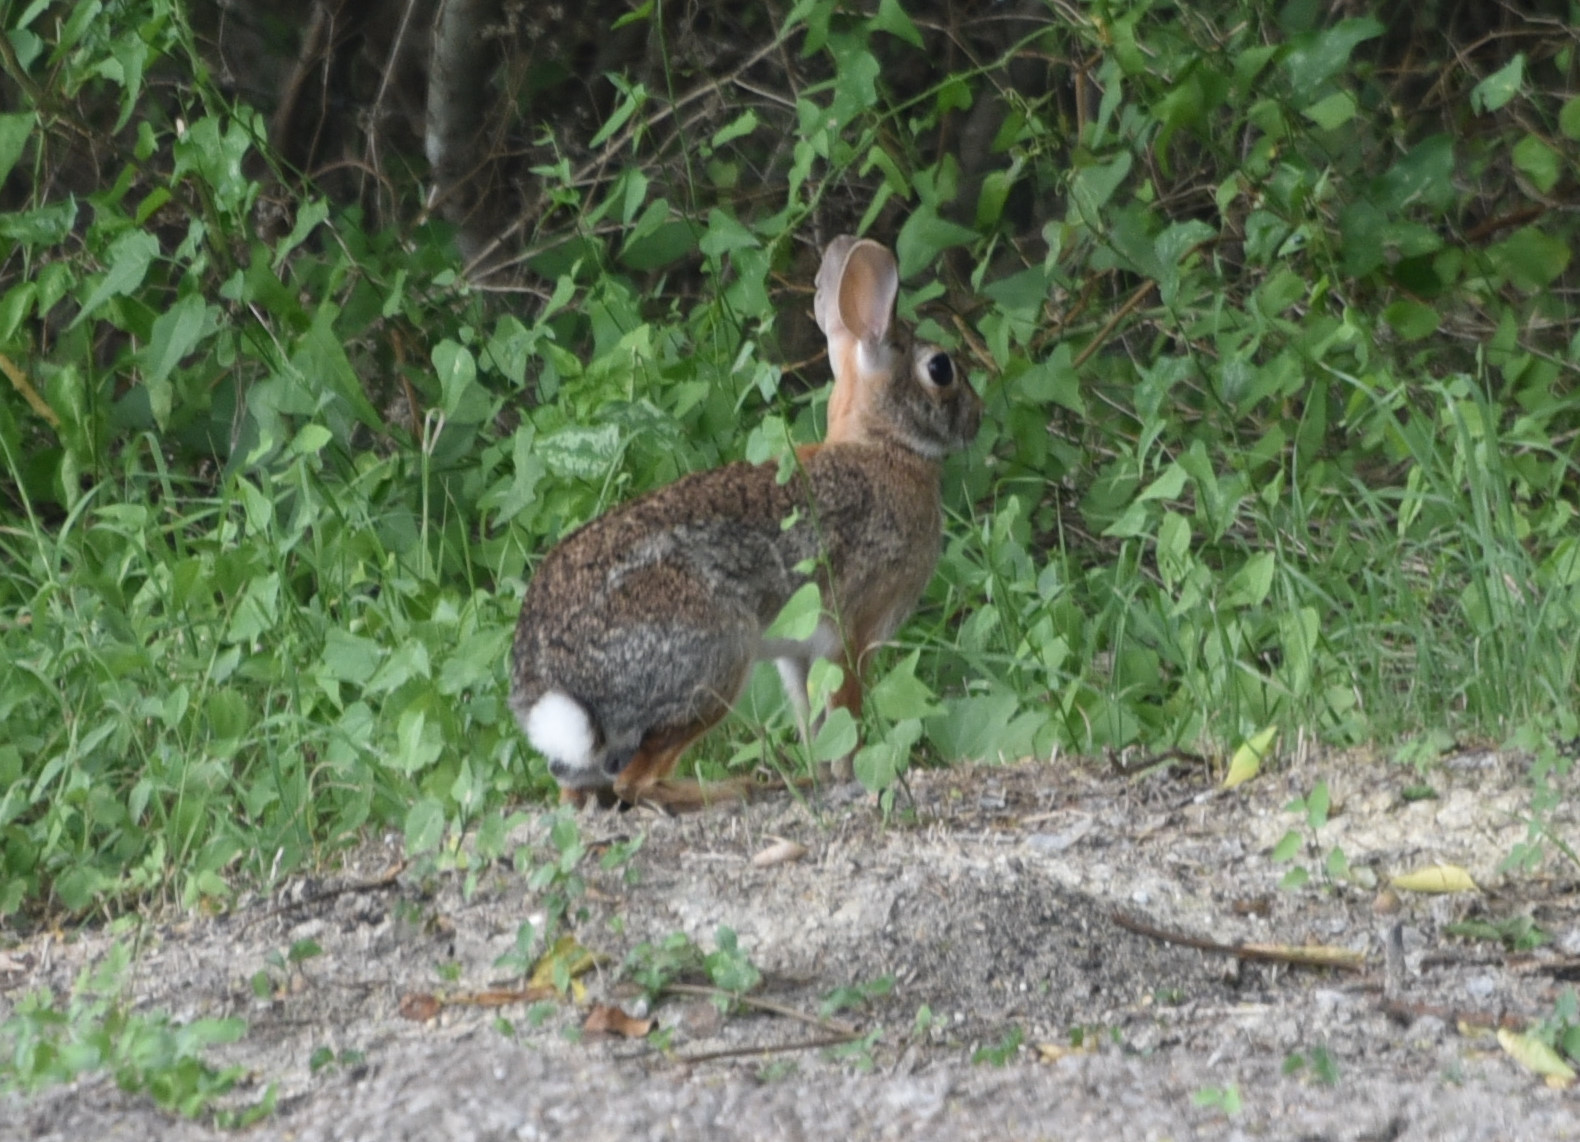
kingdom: Animalia
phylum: Chordata
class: Mammalia
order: Lagomorpha
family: Leporidae
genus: Sylvilagus
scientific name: Sylvilagus floridanus
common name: Eastern cottontail
